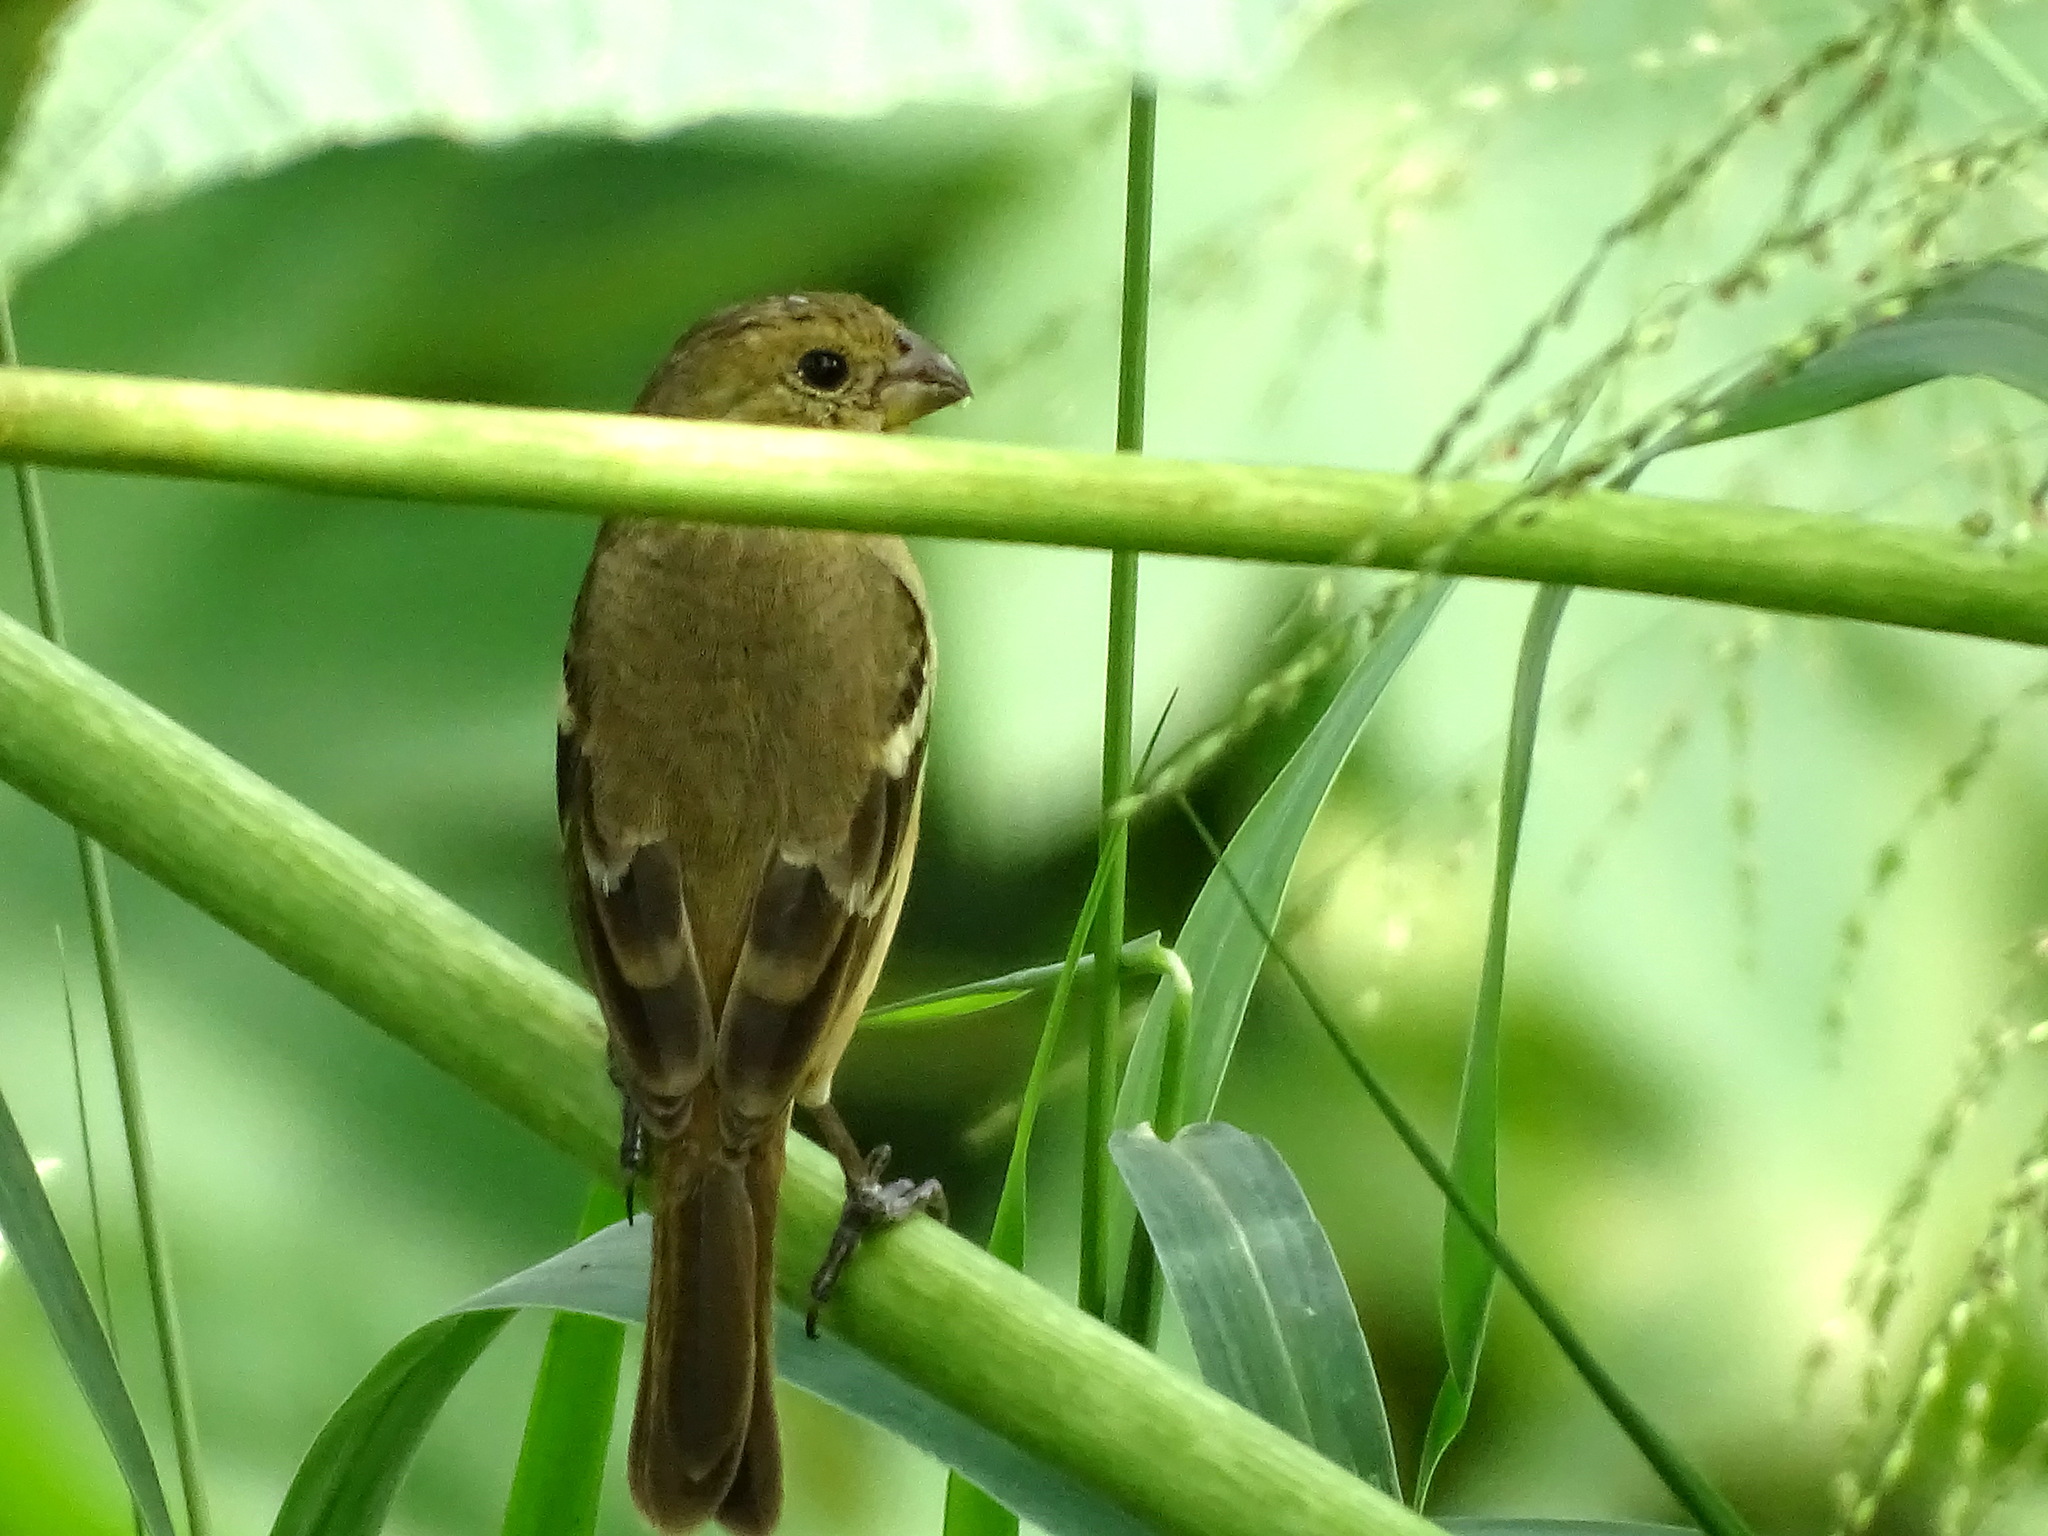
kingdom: Animalia
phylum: Chordata
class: Aves
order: Passeriformes
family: Thraupidae
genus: Sporophila
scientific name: Sporophila morelleti
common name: Morelet's seedeater
